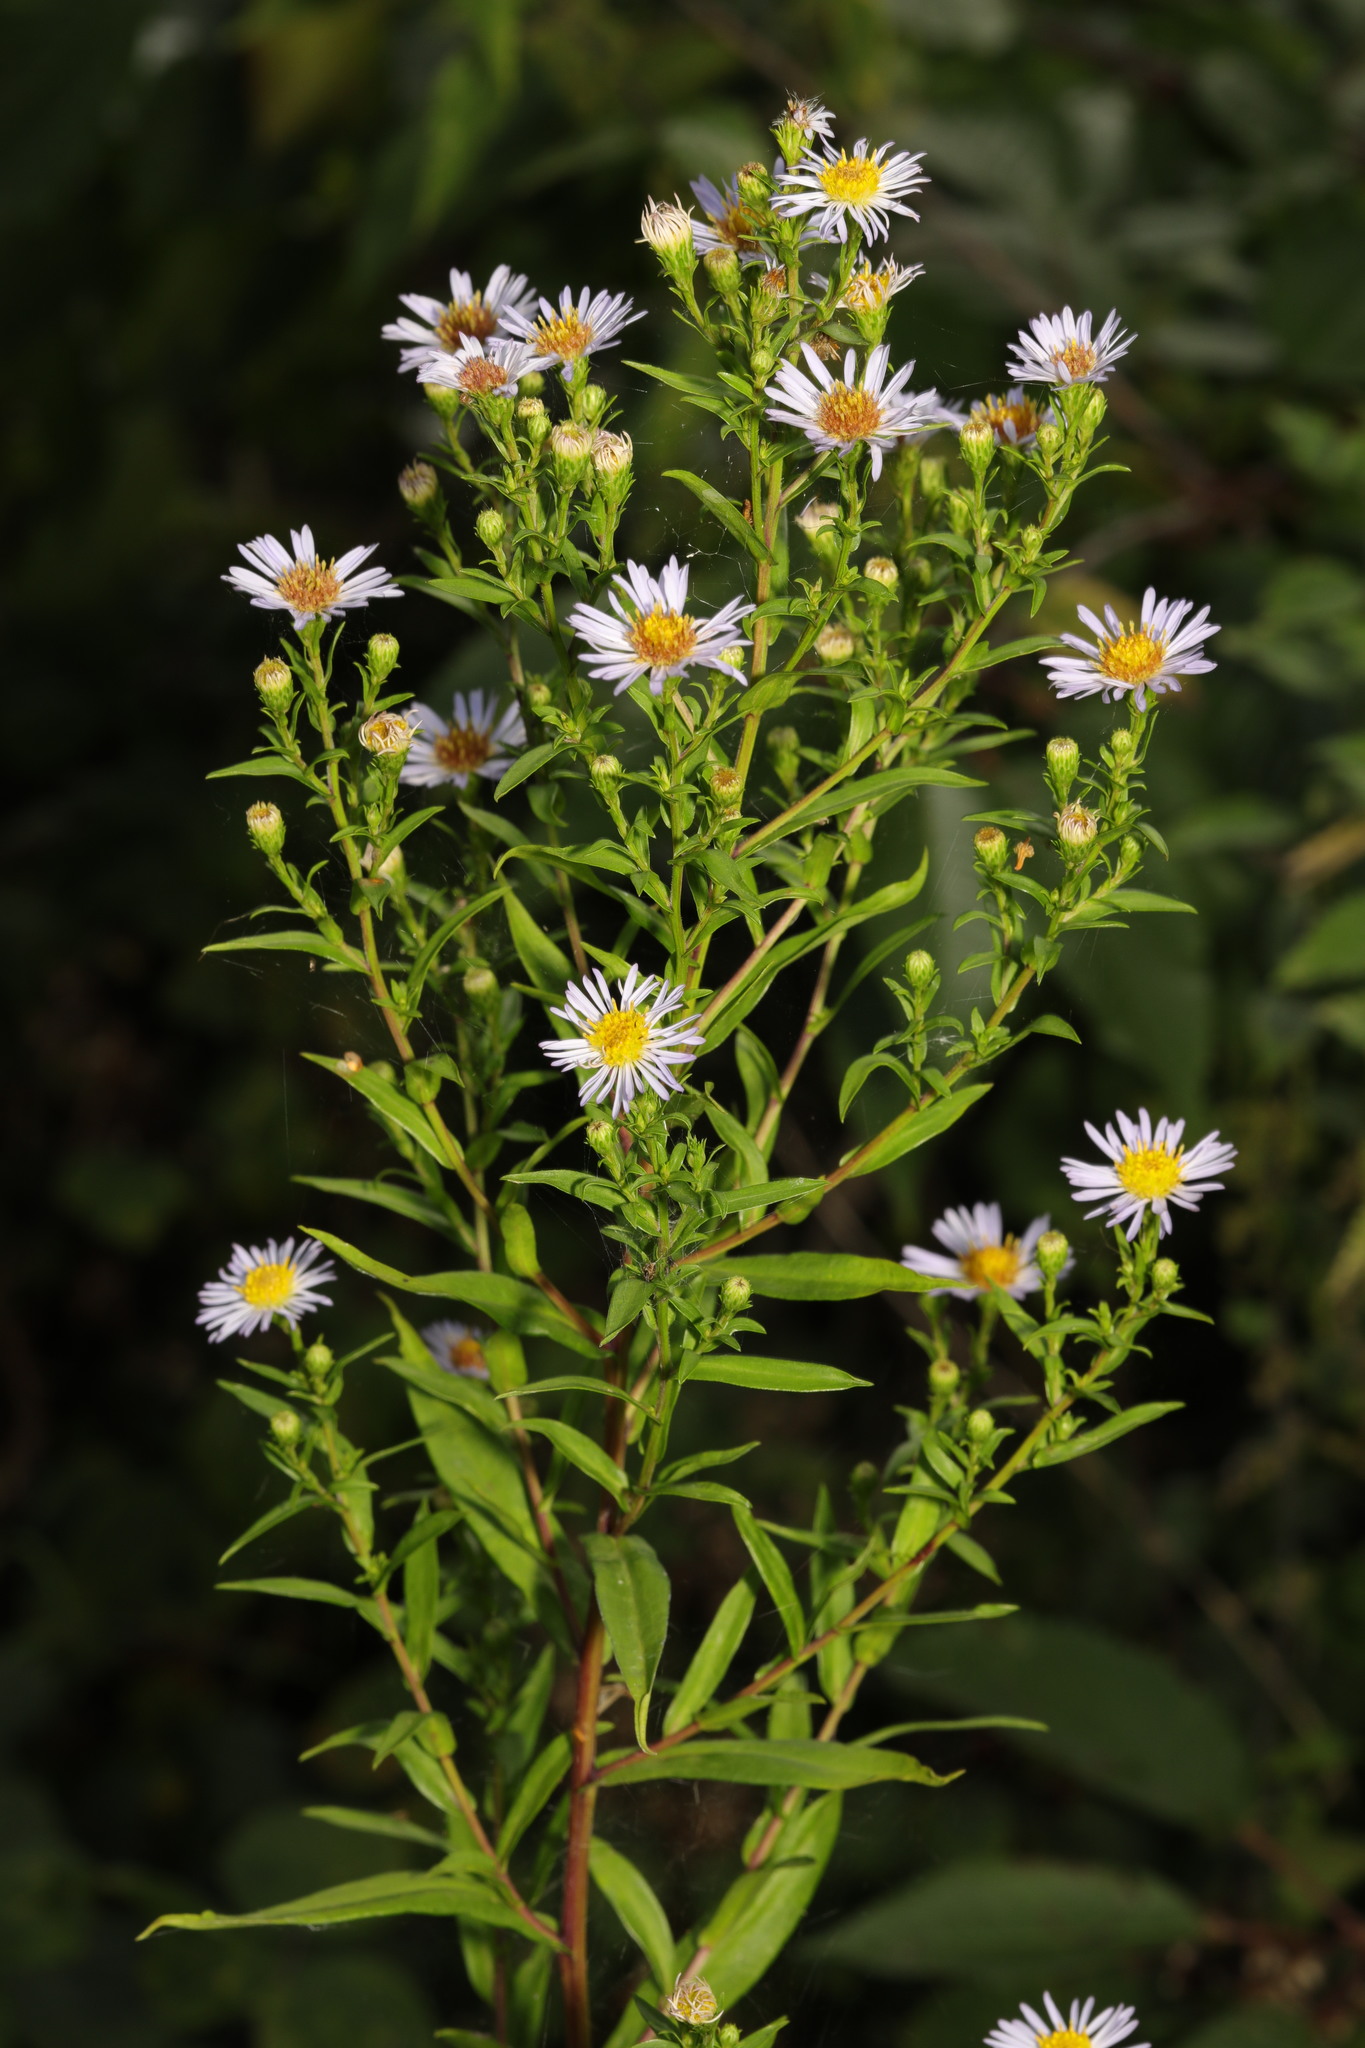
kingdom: Plantae
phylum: Tracheophyta
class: Magnoliopsida
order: Asterales
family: Asteraceae
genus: Symphyotrichum
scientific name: Symphyotrichum
